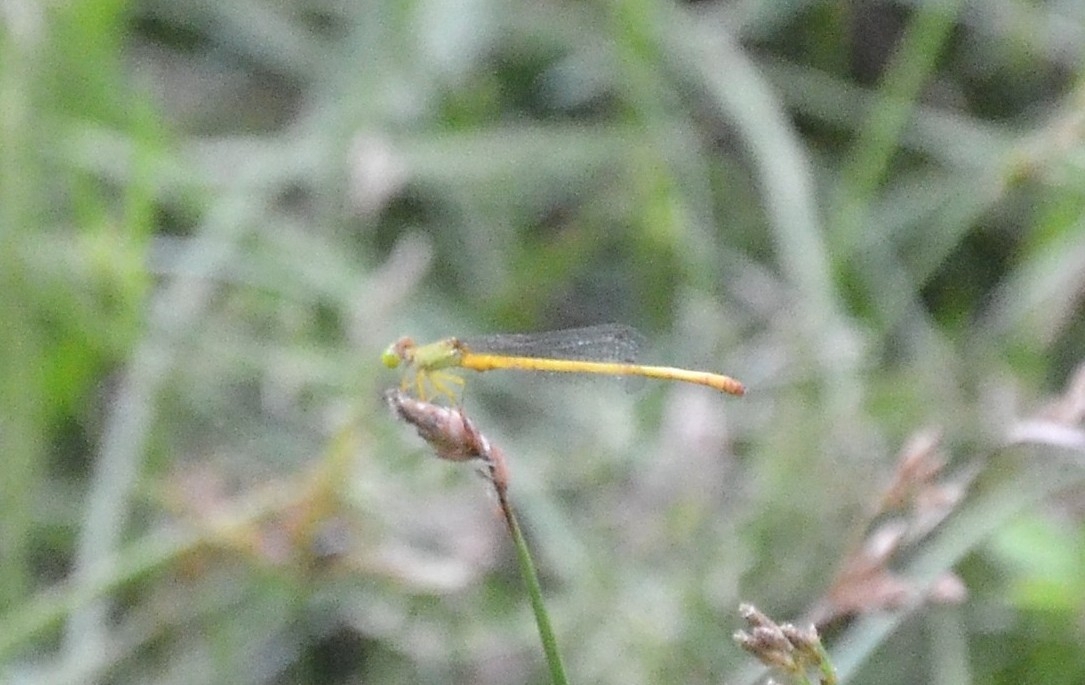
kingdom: Animalia
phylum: Arthropoda
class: Insecta
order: Odonata
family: Coenagrionidae
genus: Ceriagrion
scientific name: Ceriagrion coromandelianum
